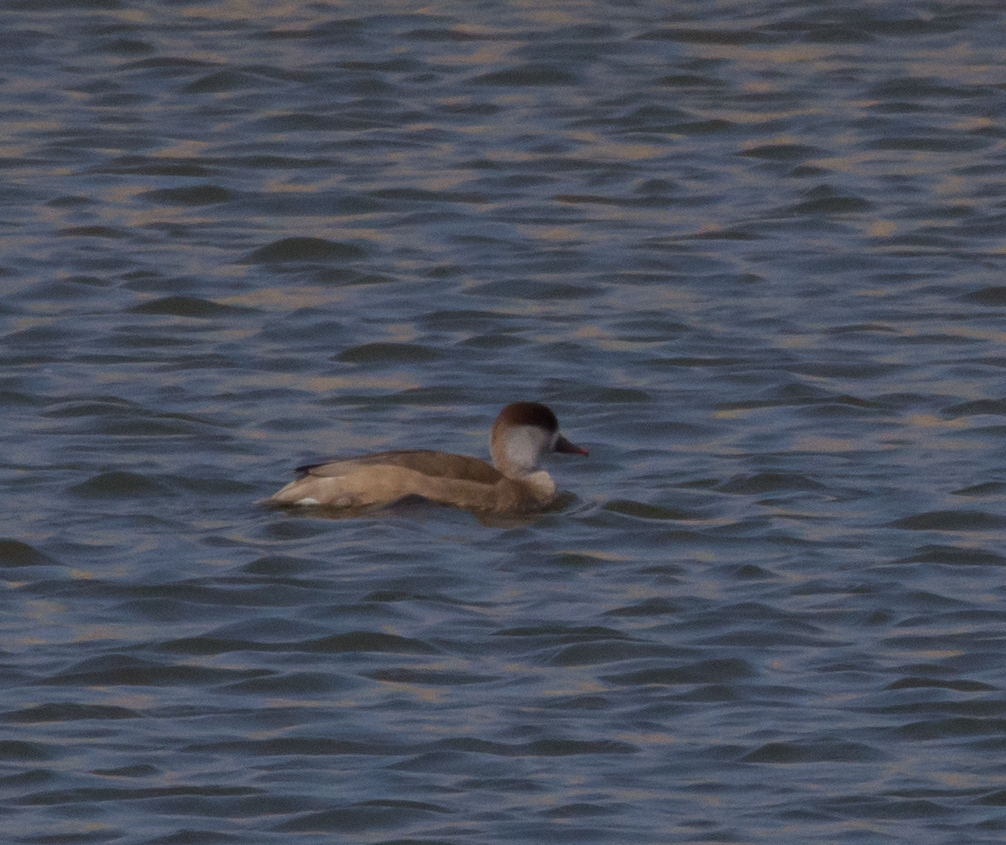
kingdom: Animalia
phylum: Chordata
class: Aves
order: Anseriformes
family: Anatidae
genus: Netta
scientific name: Netta rufina
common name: Red-crested pochard
